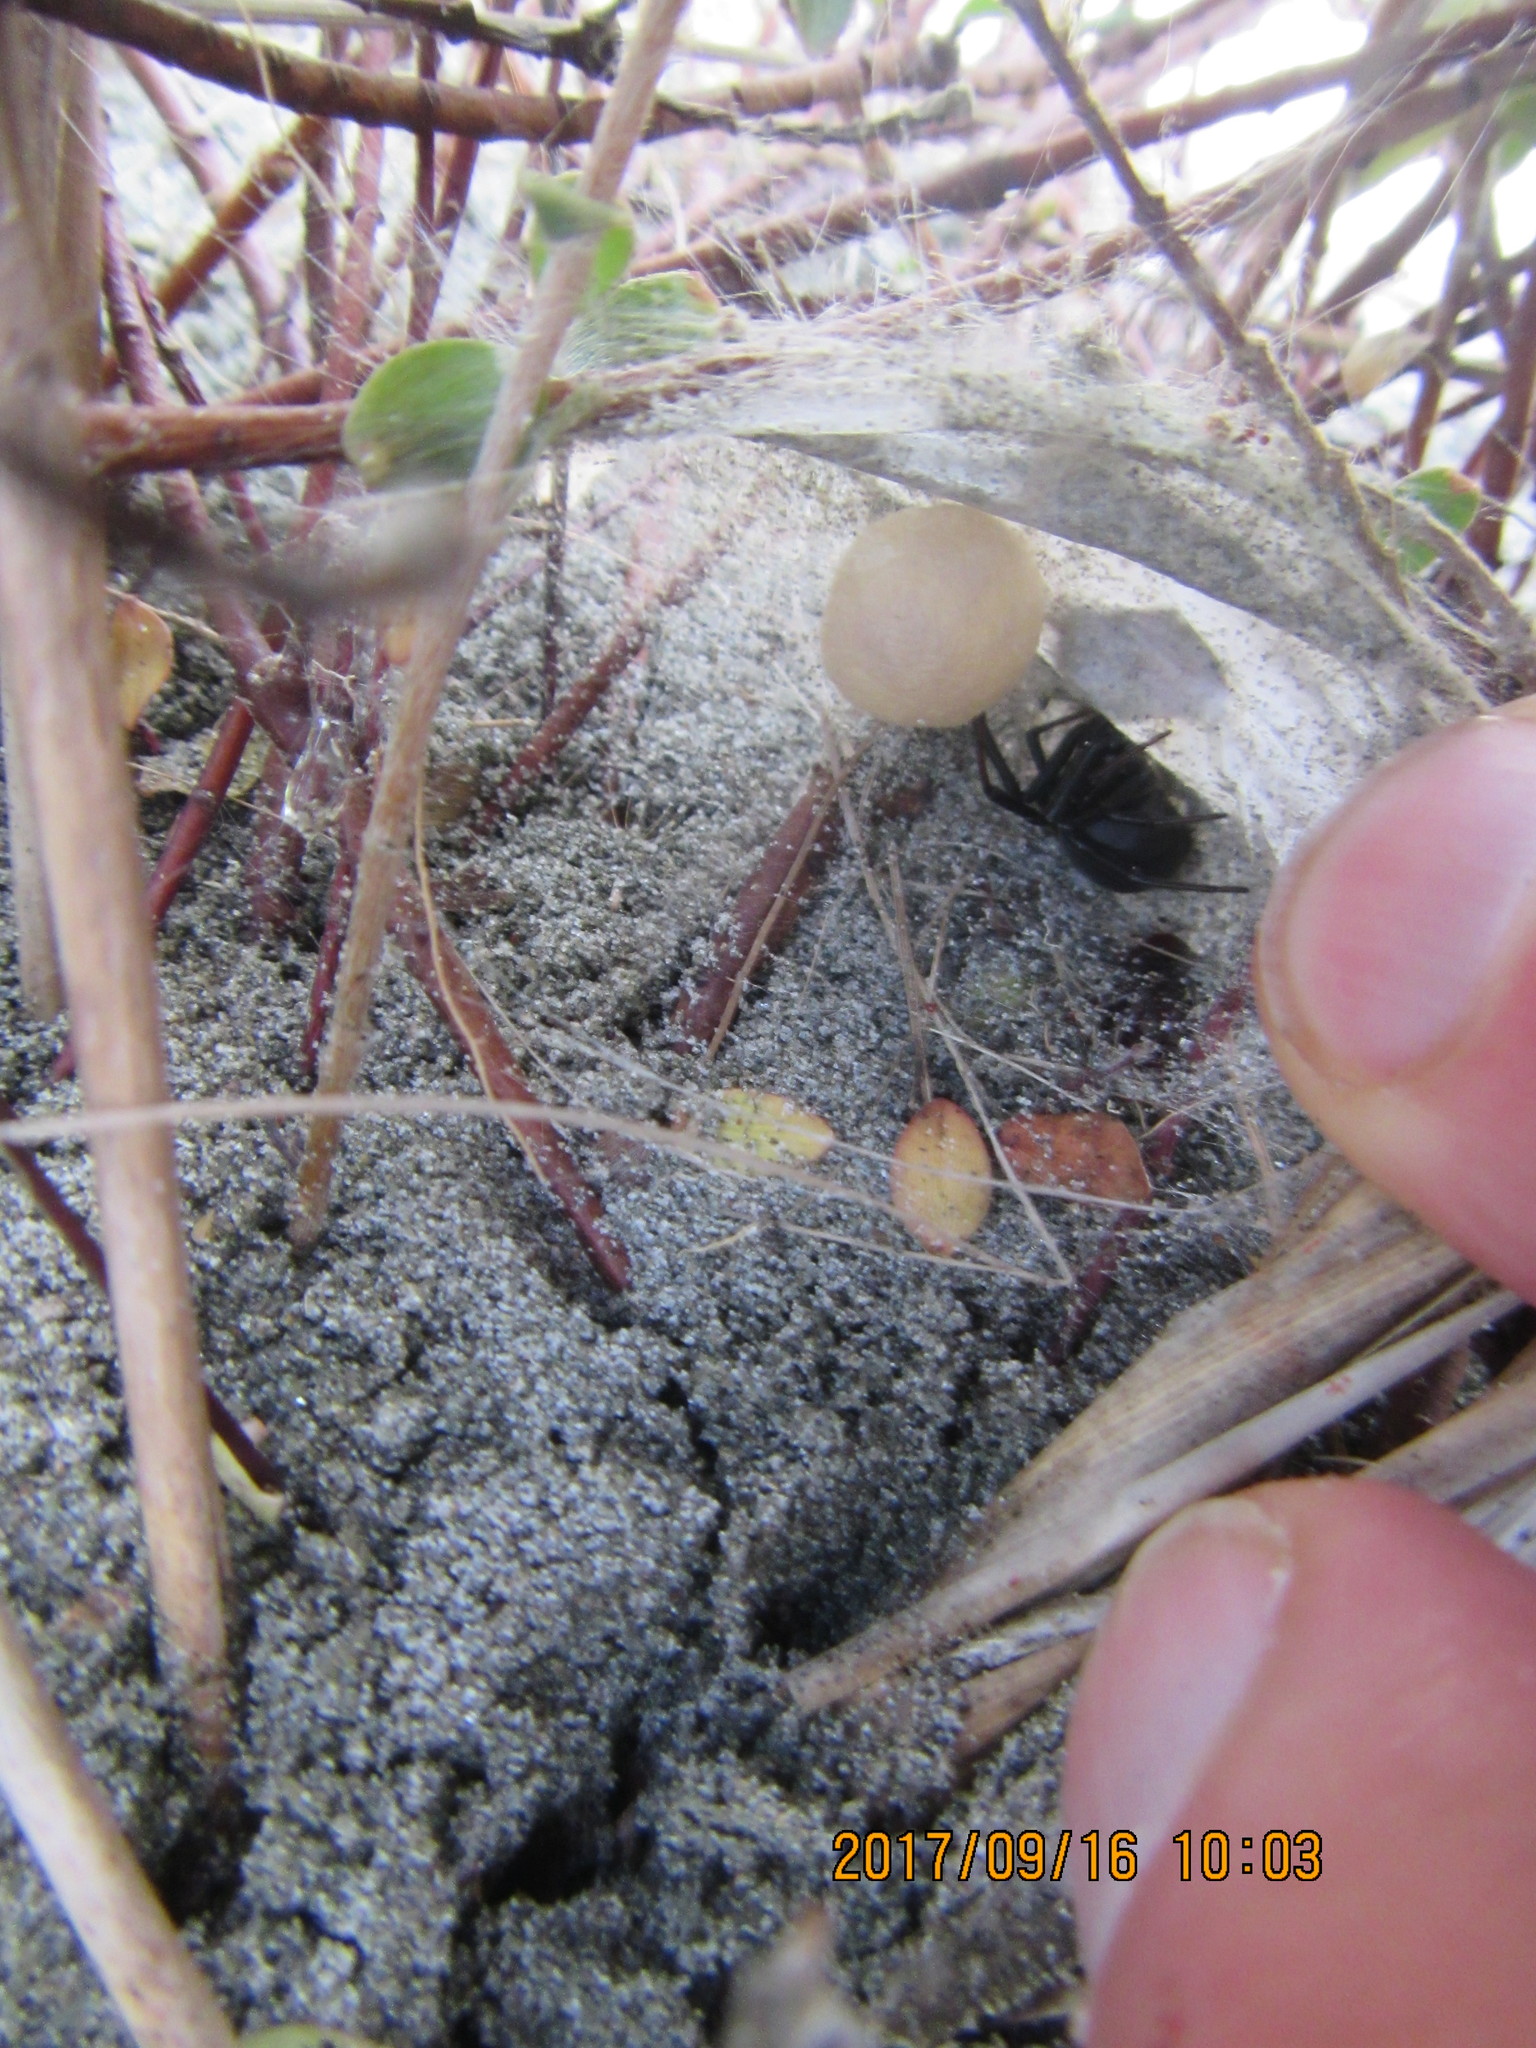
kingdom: Animalia
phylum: Arthropoda
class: Arachnida
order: Araneae
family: Theridiidae
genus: Latrodectus
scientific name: Latrodectus katipo
